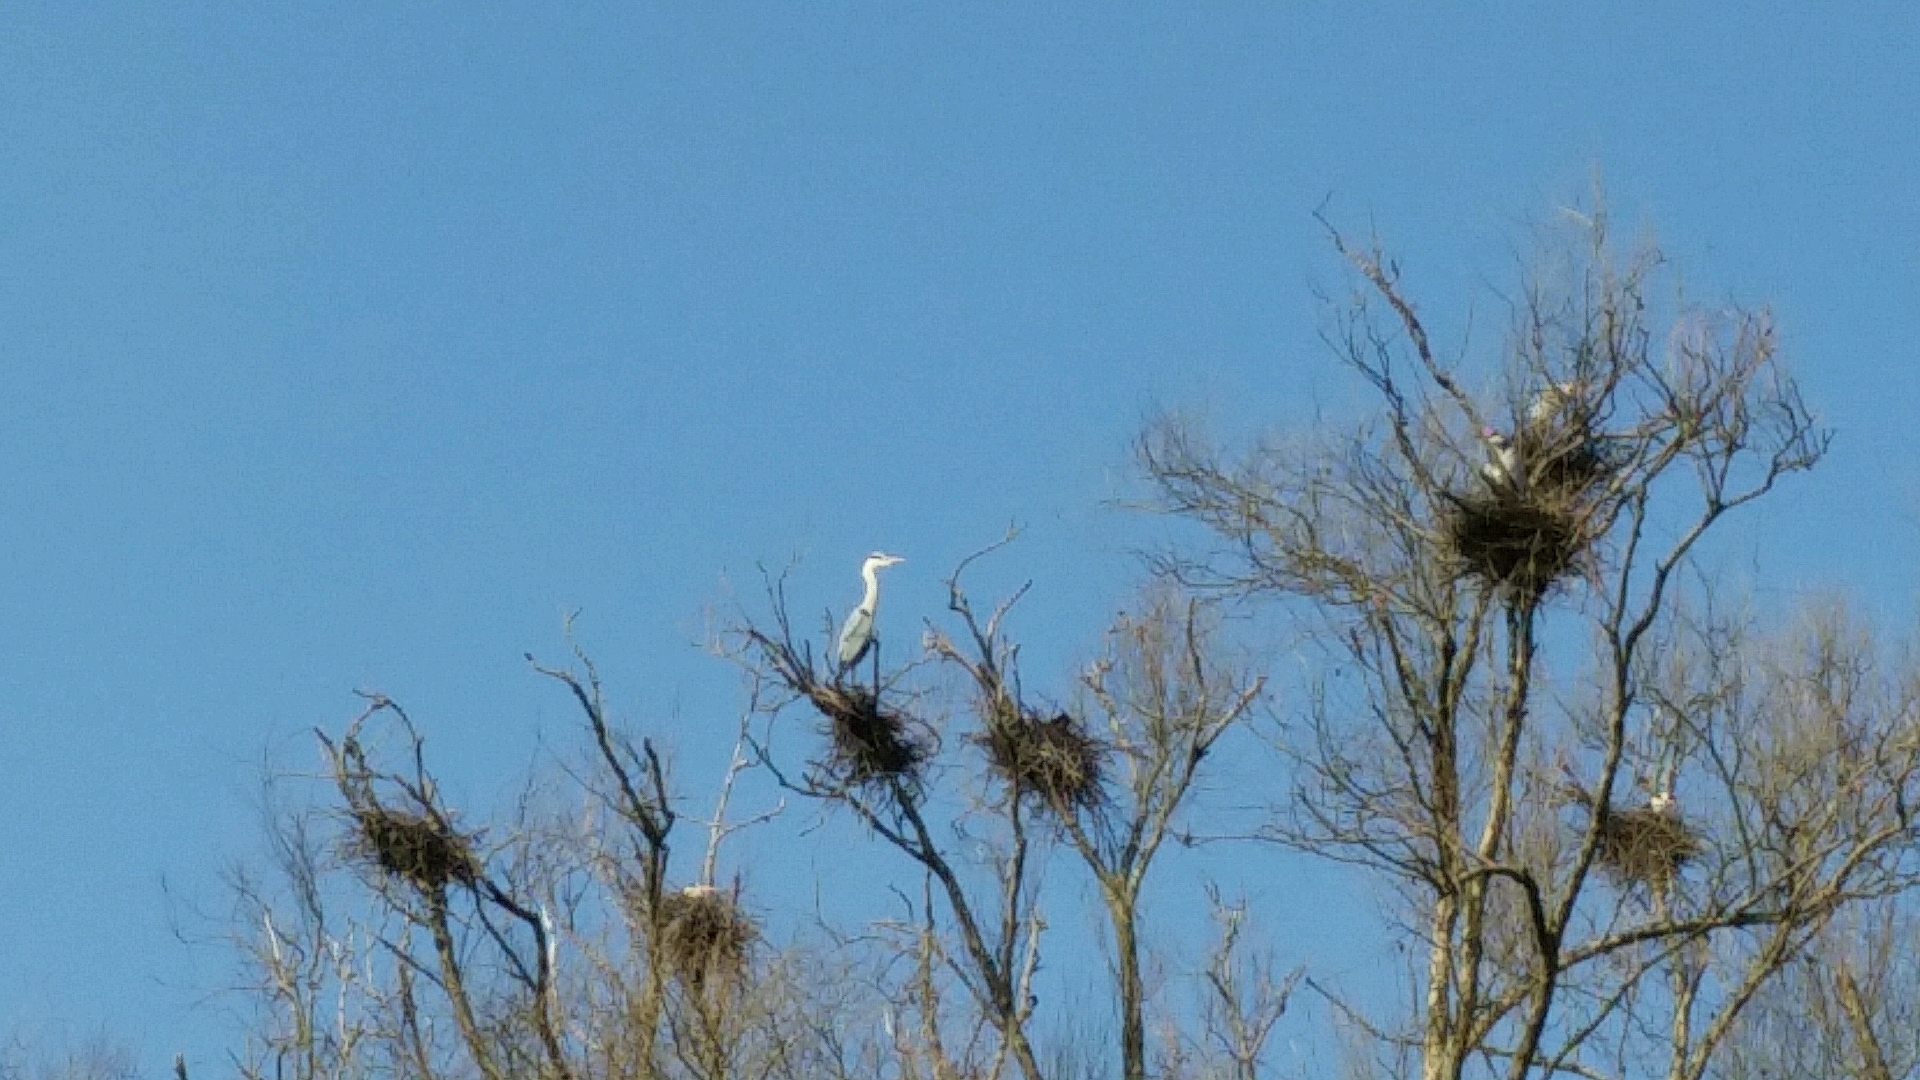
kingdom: Animalia
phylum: Chordata
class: Aves
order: Pelecaniformes
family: Ardeidae
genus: Ardea
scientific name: Ardea cinerea
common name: Grey heron
